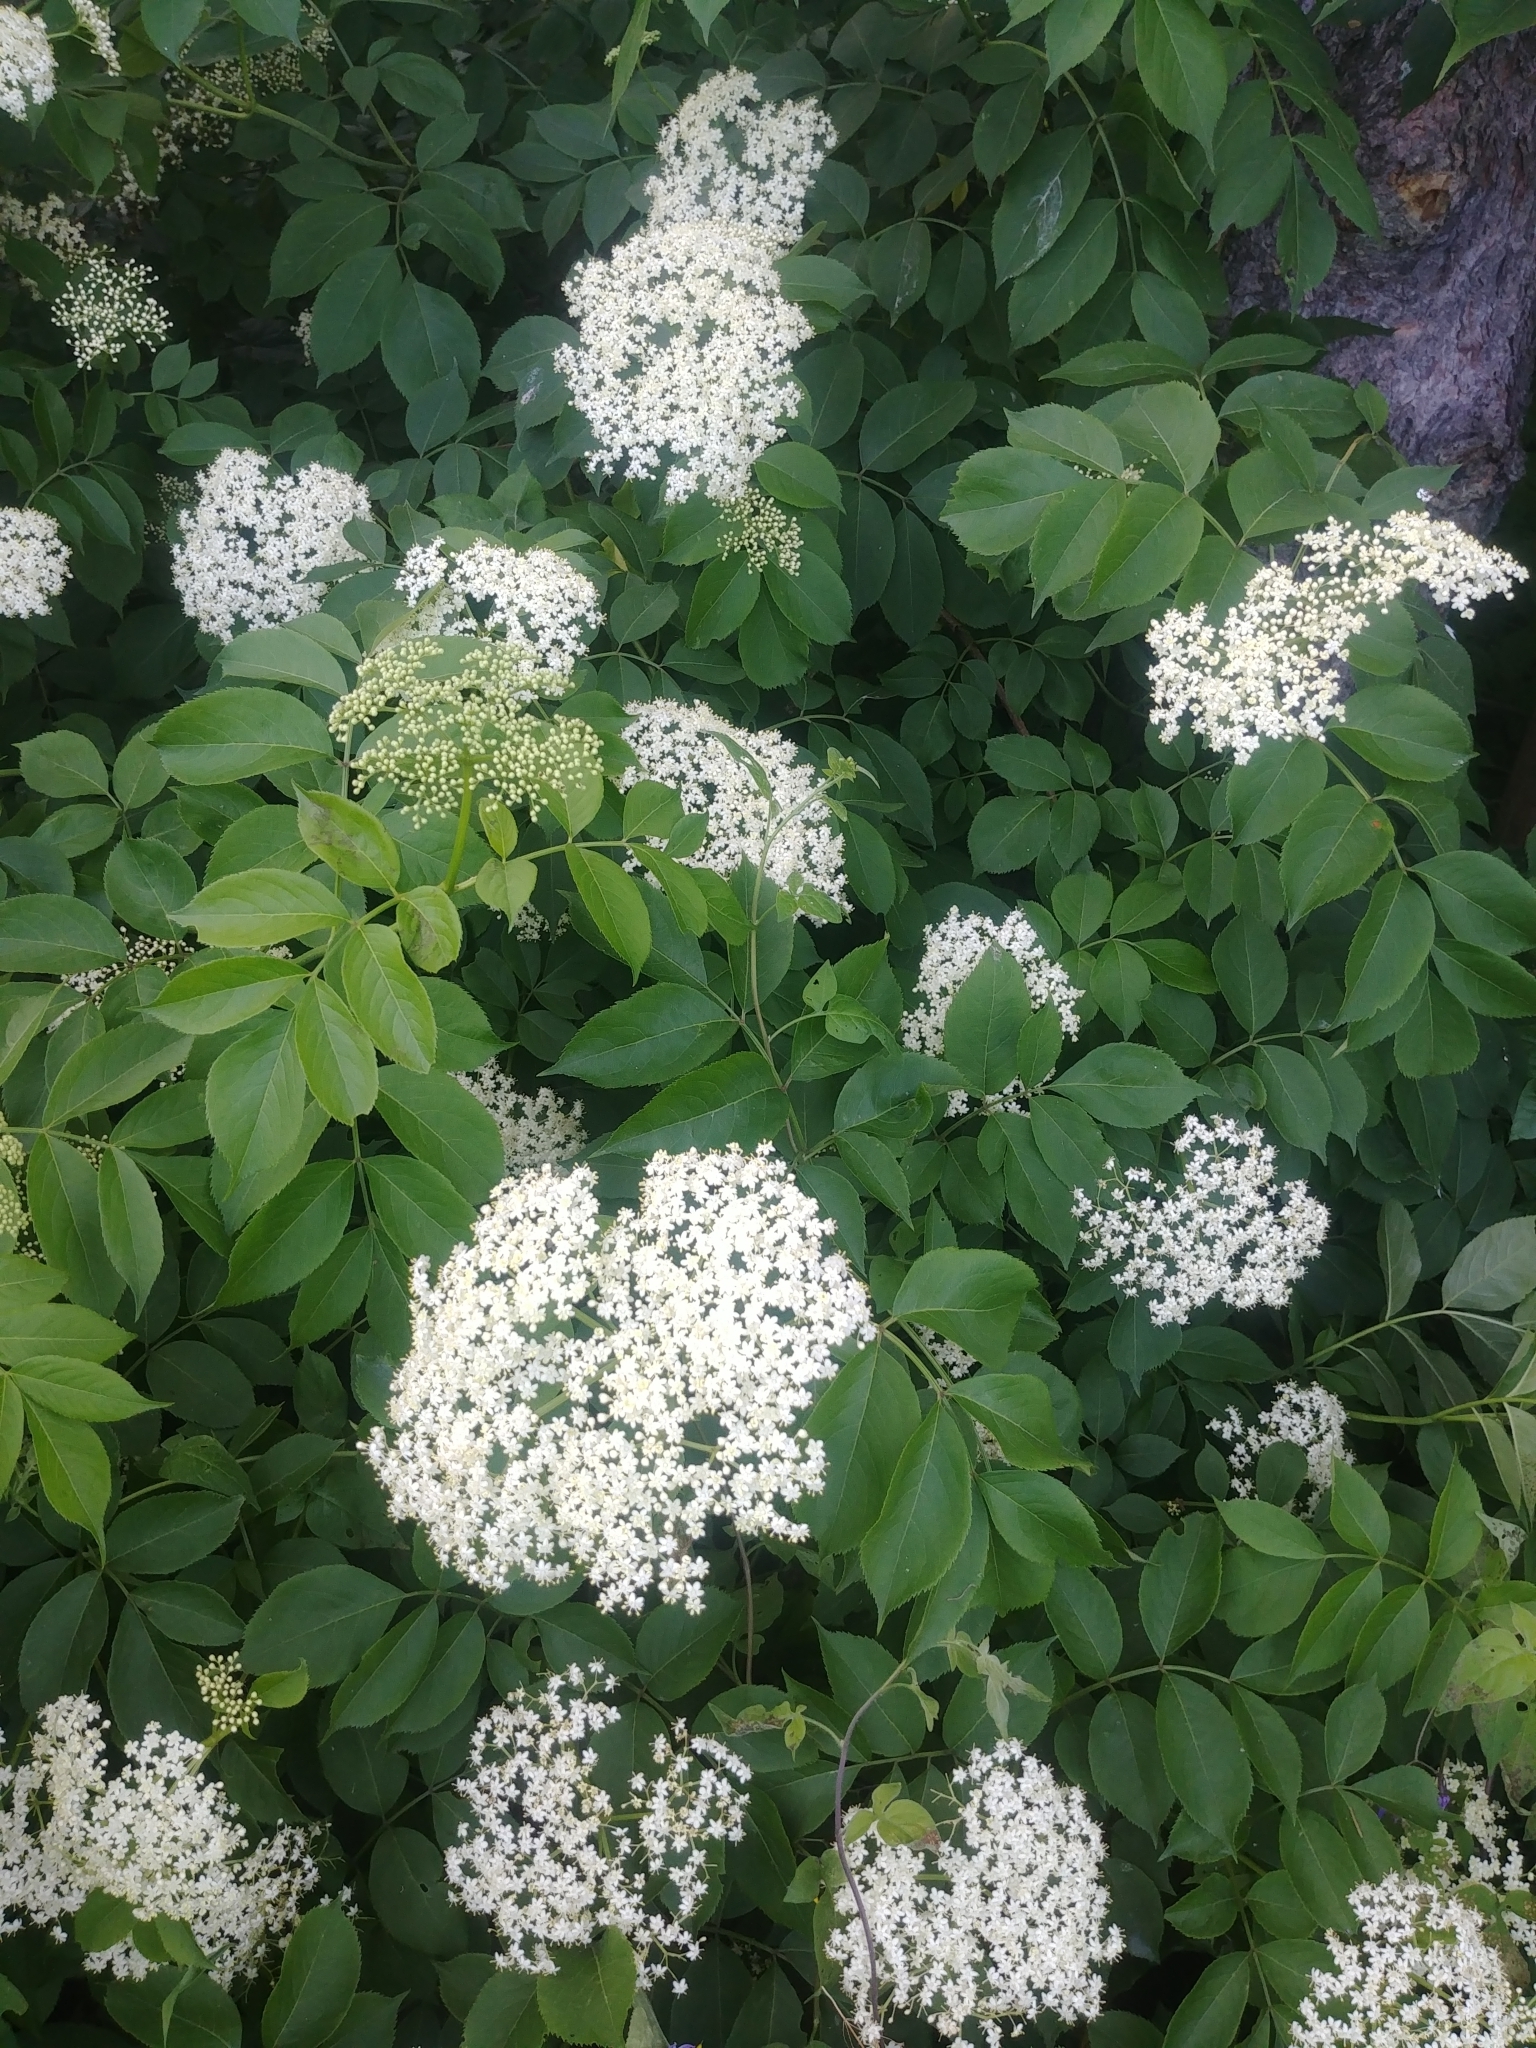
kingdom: Plantae
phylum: Tracheophyta
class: Magnoliopsida
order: Dipsacales
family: Viburnaceae
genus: Sambucus
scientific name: Sambucus canadensis
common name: American elder
